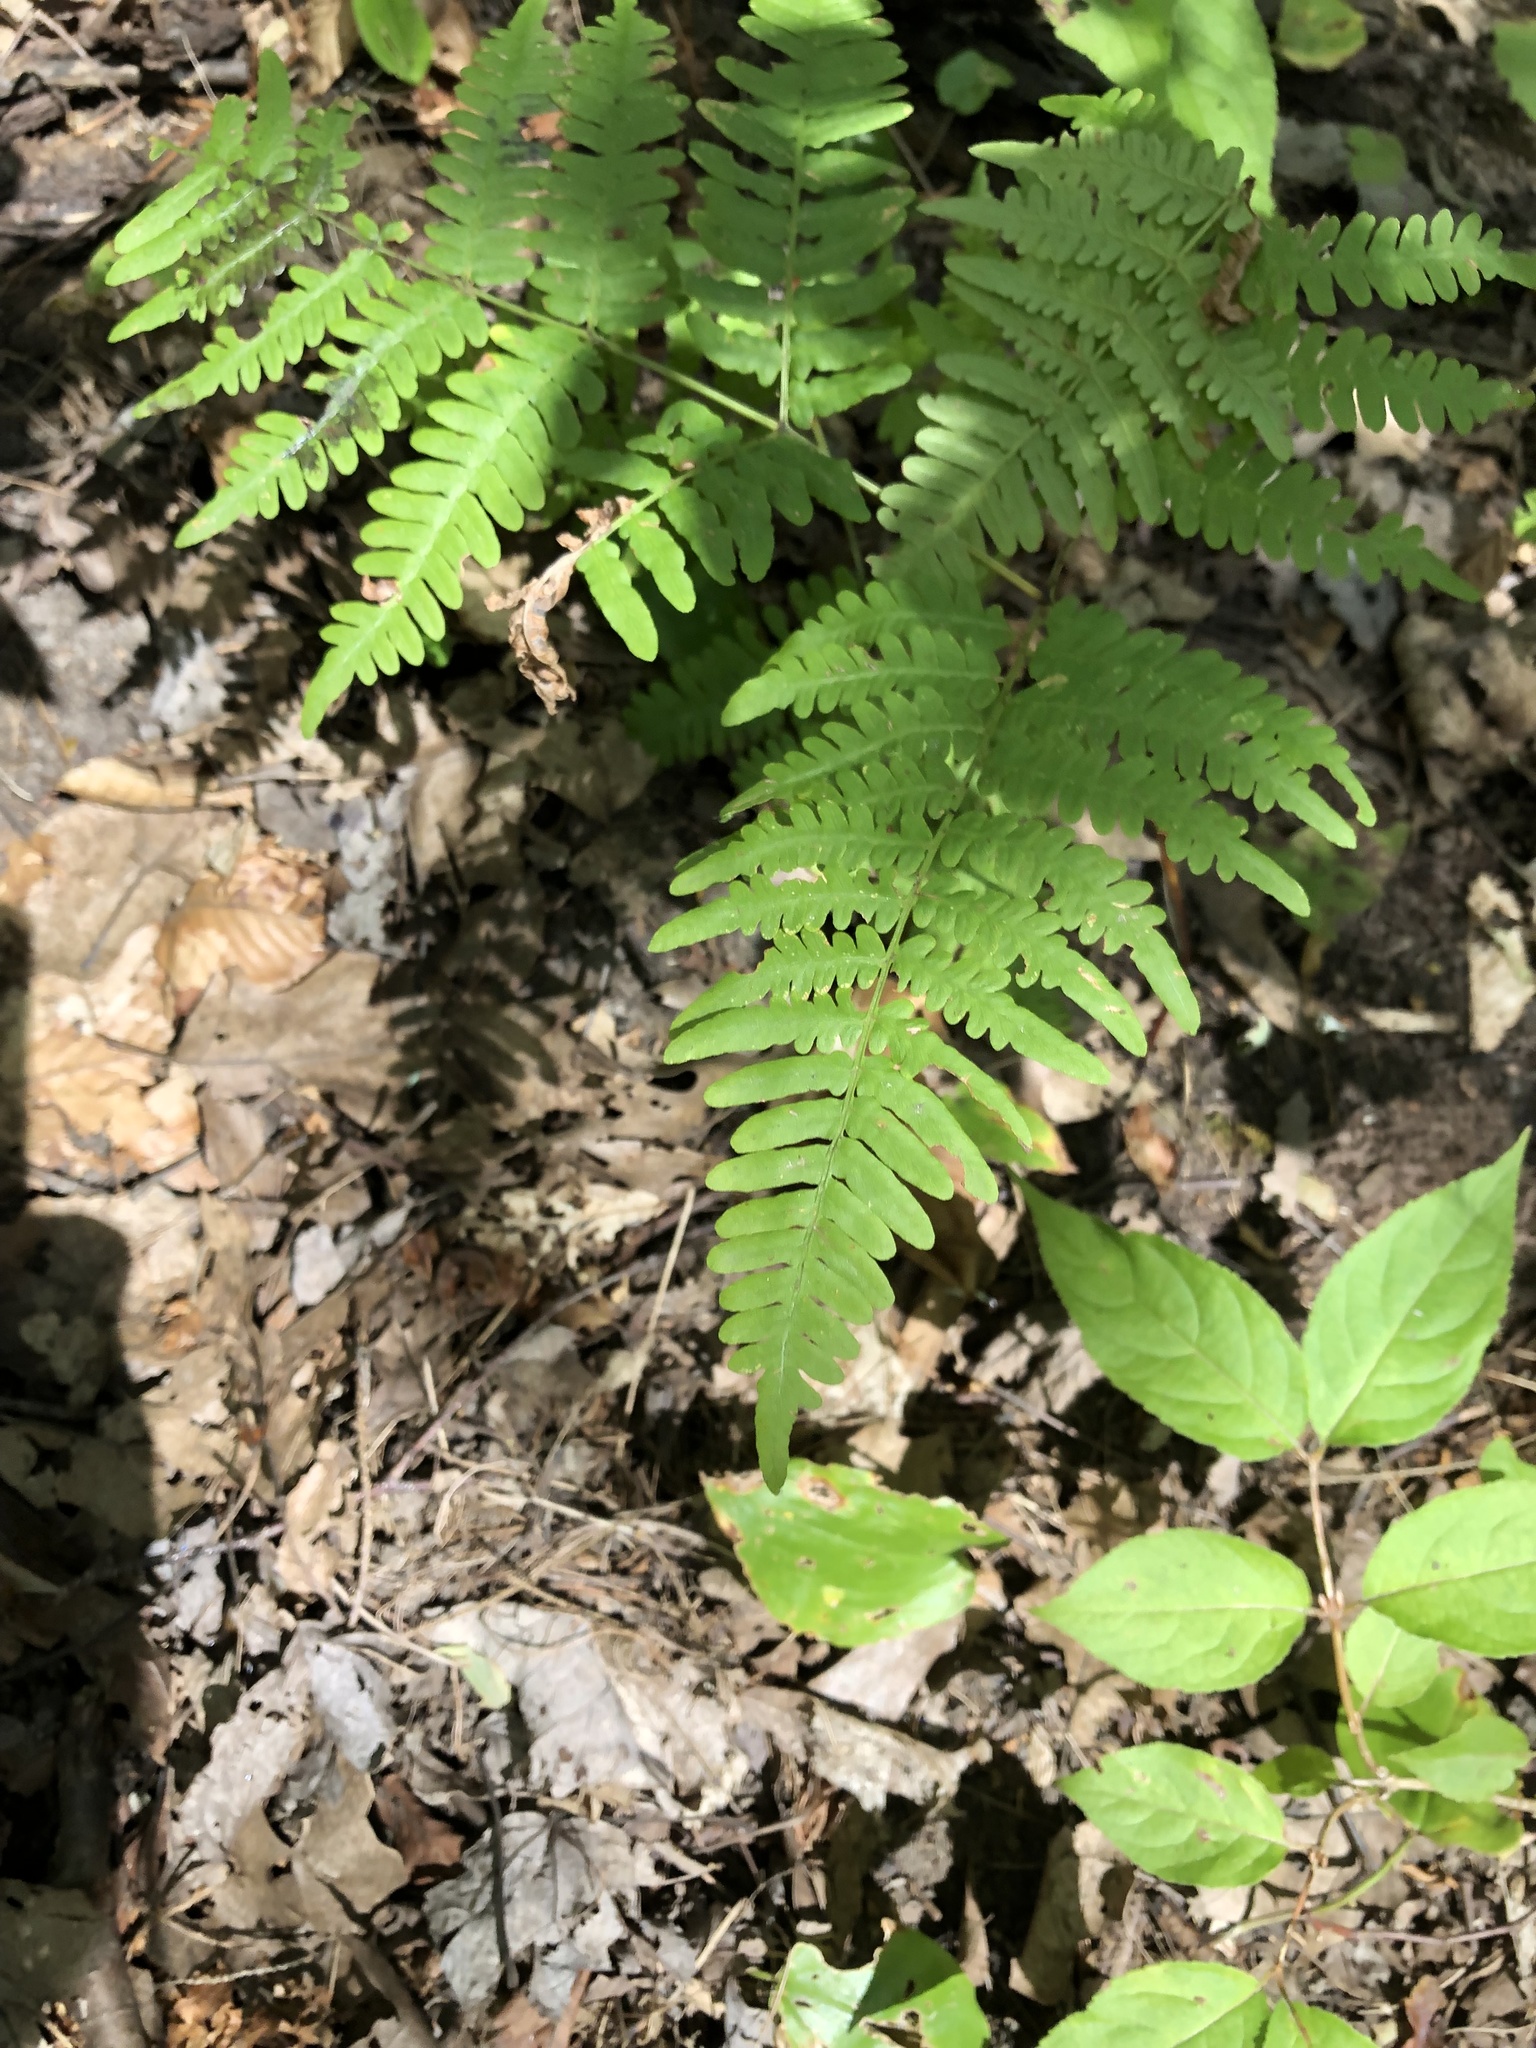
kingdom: Plantae
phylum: Tracheophyta
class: Polypodiopsida
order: Polypodiales
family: Dennstaedtiaceae
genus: Pteridium
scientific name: Pteridium aquilinum
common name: Bracken
